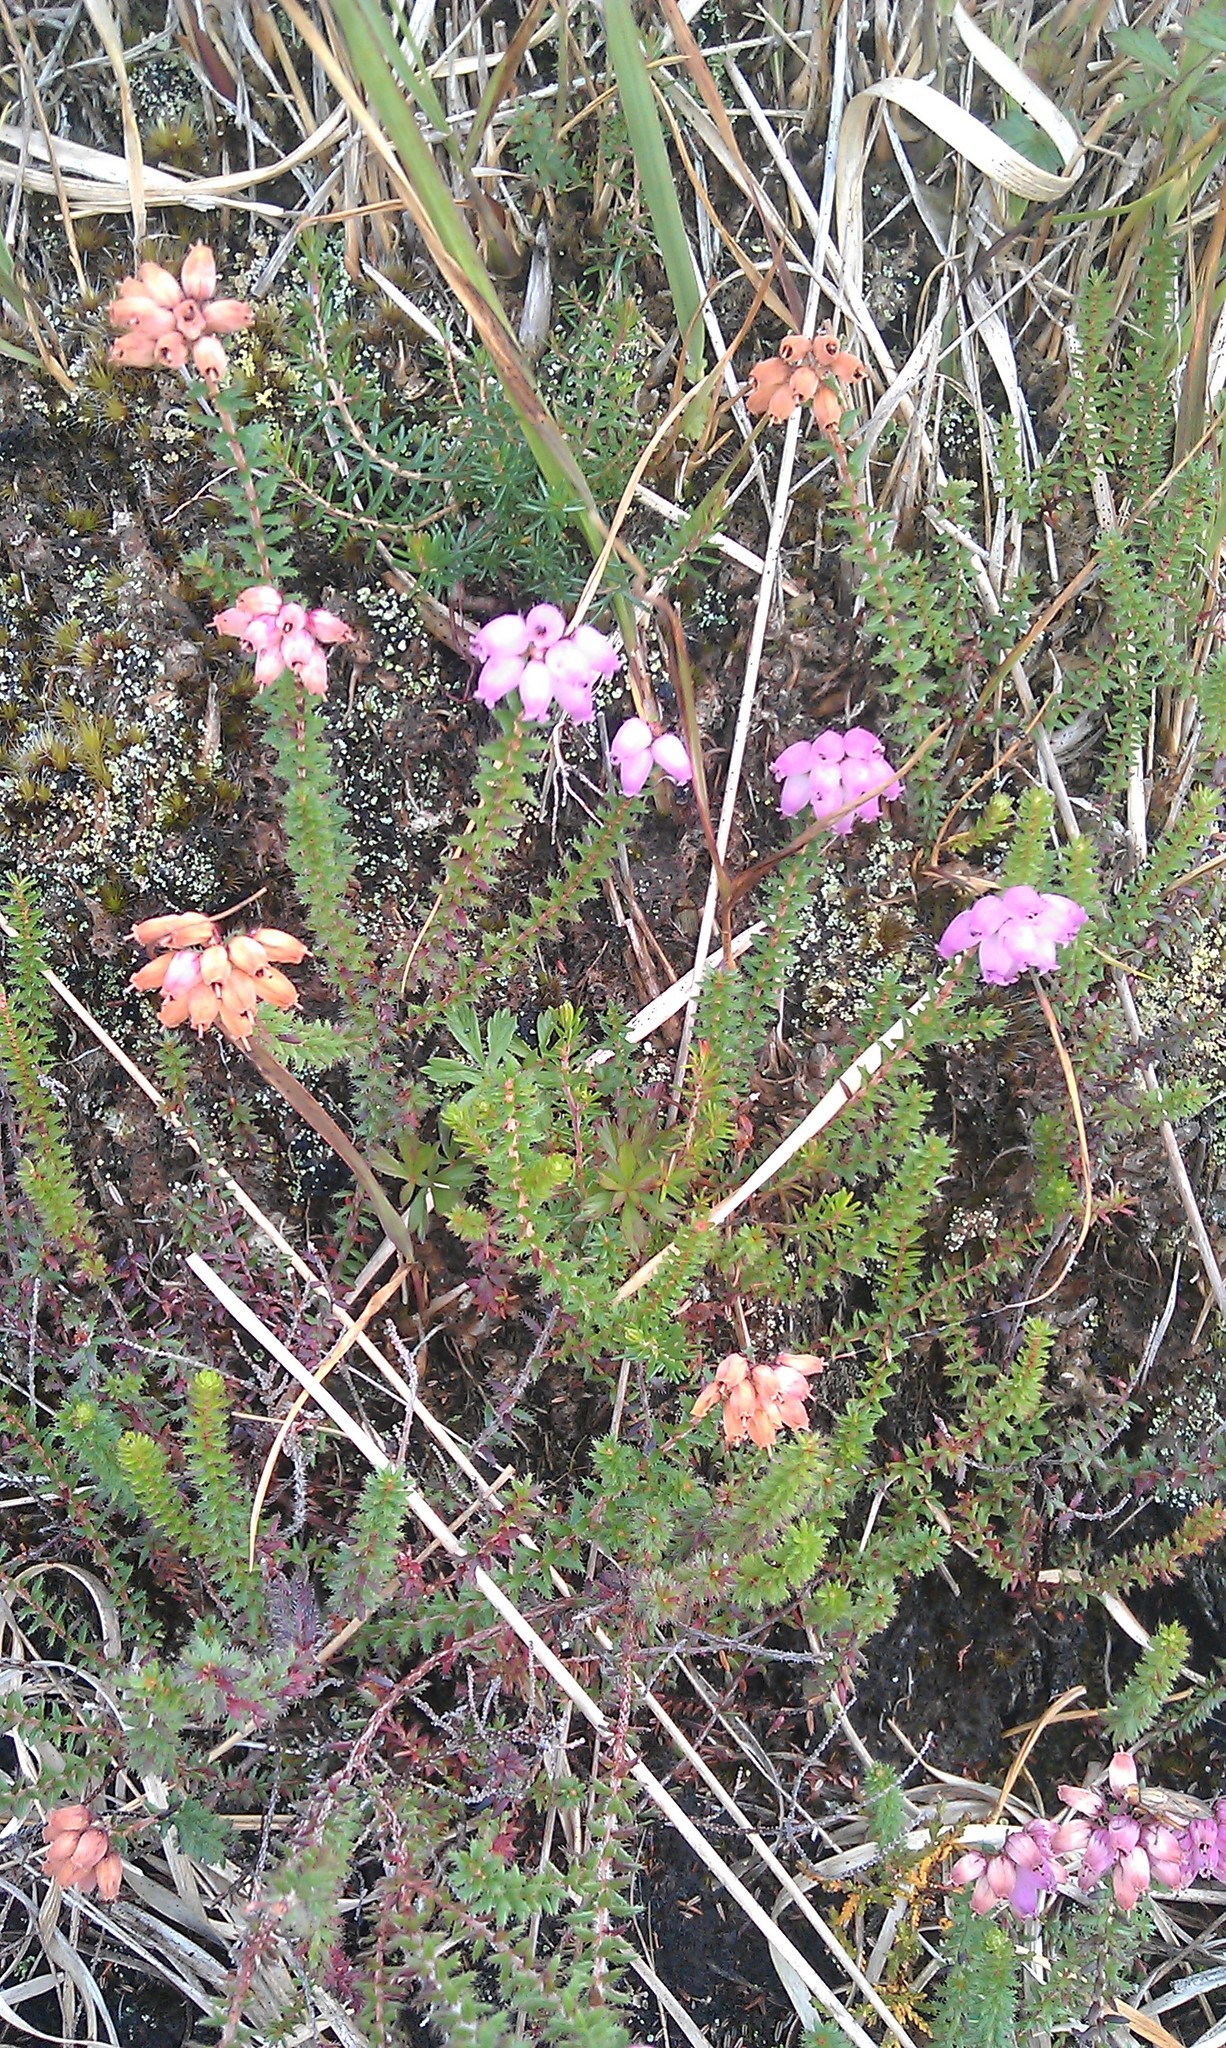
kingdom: Plantae
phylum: Tracheophyta
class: Magnoliopsida
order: Ericales
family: Ericaceae
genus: Erica
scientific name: Erica mackayana
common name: Mackay's heath
